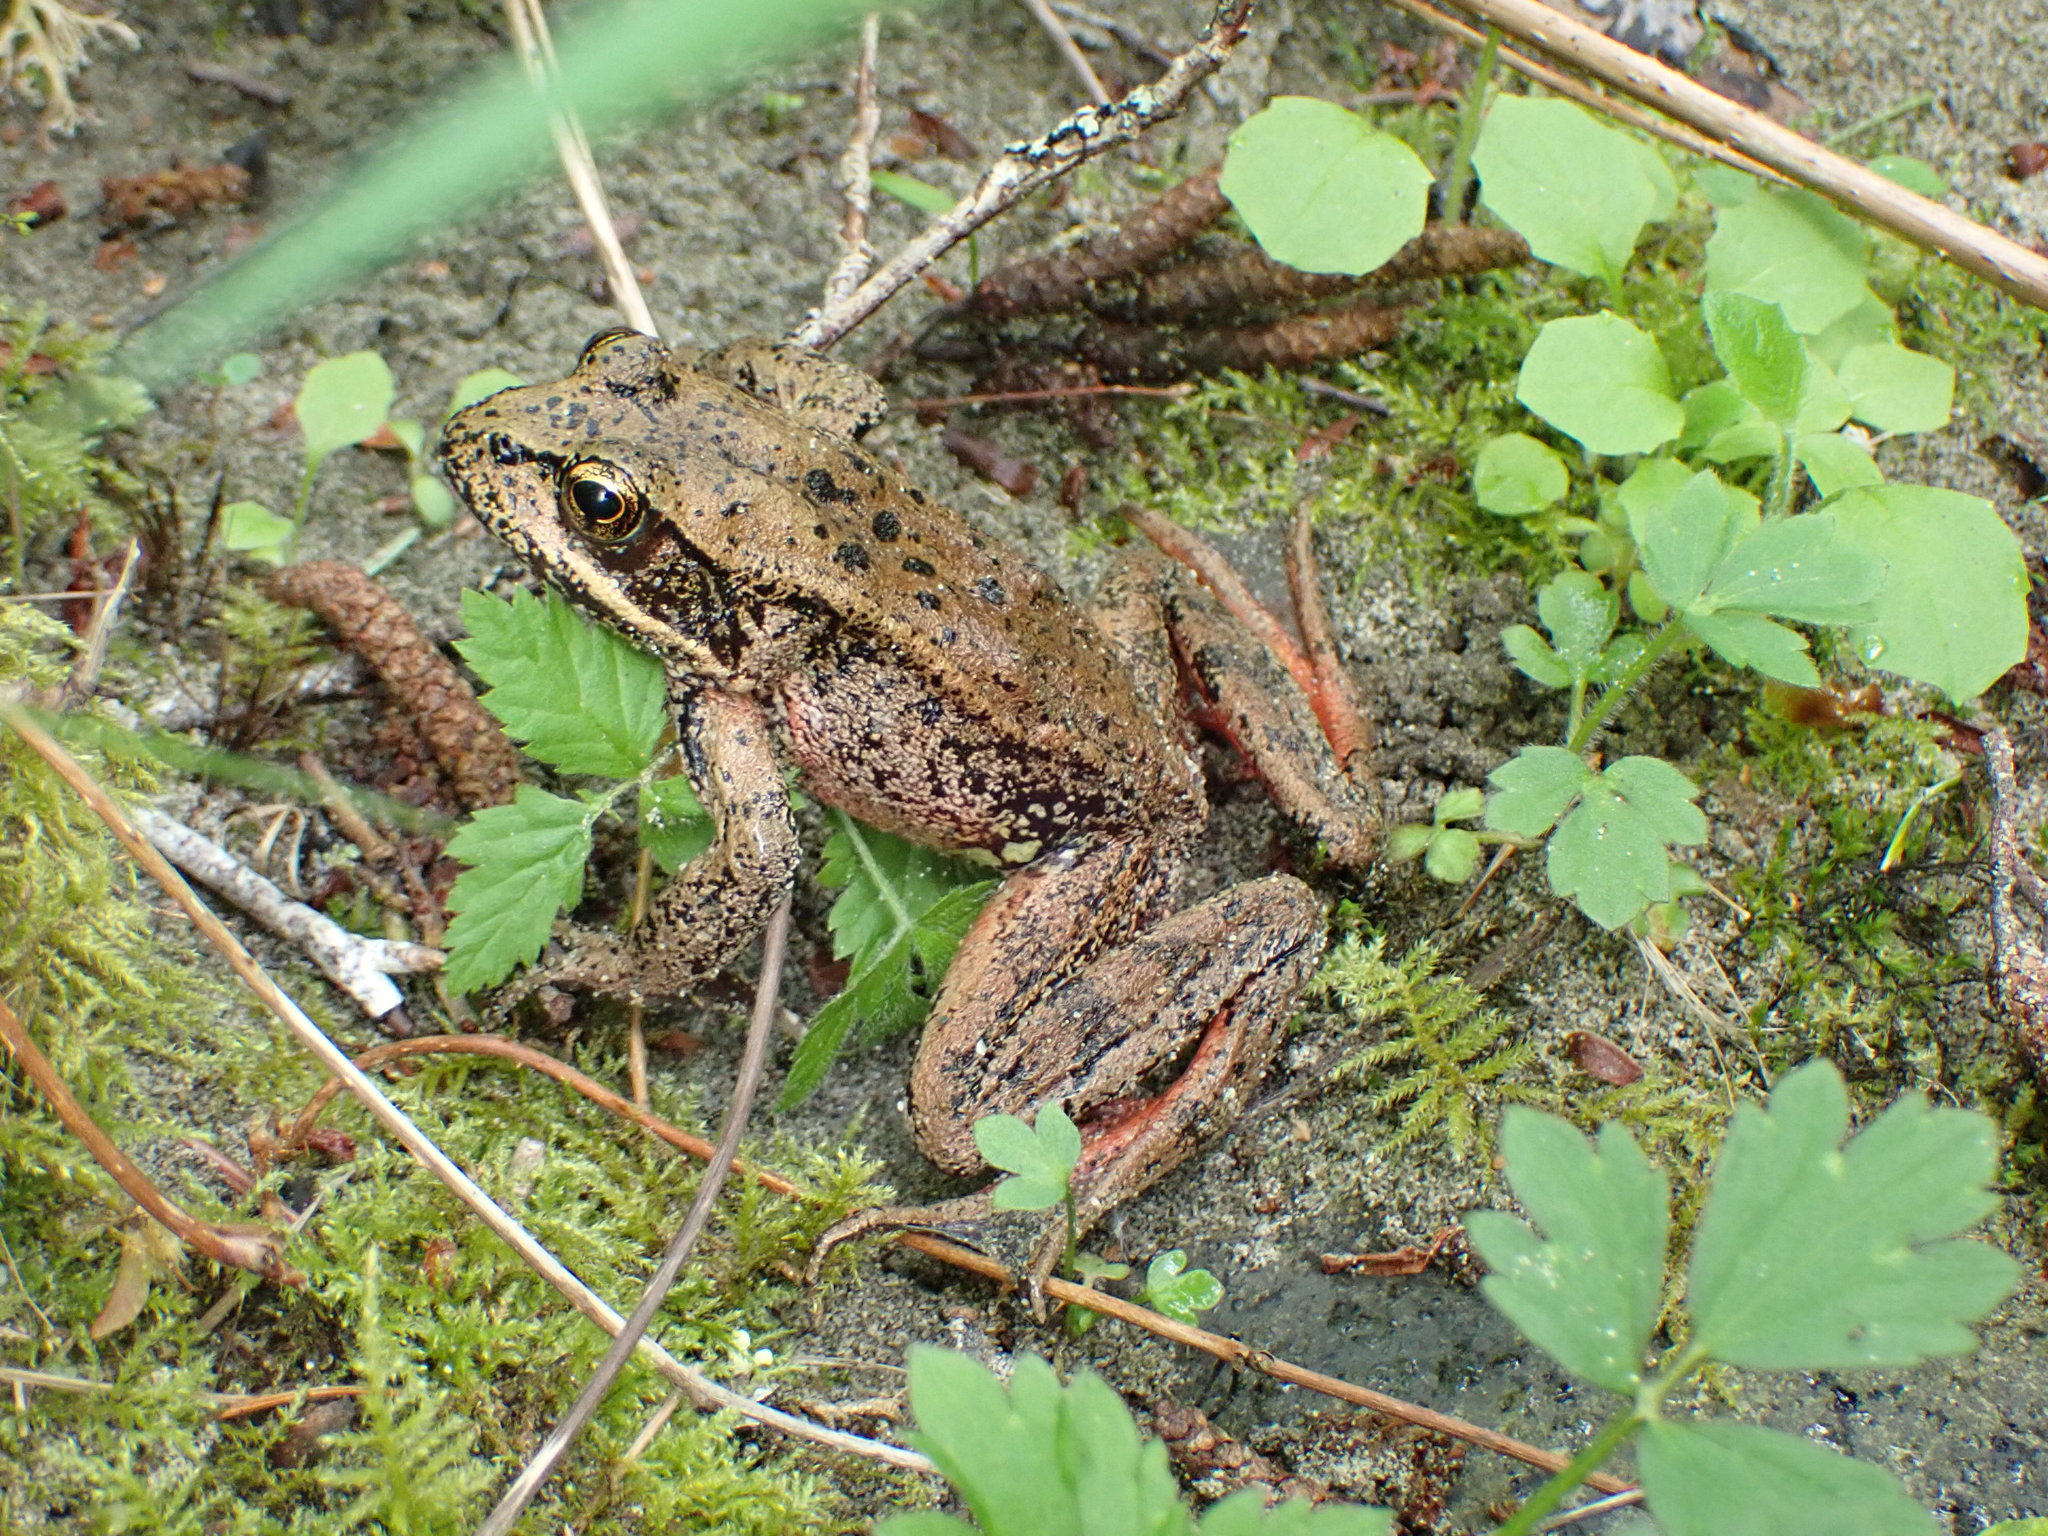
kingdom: Animalia
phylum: Chordata
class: Amphibia
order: Anura
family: Ranidae
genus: Rana
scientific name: Rana aurora
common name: Red-legged frog
